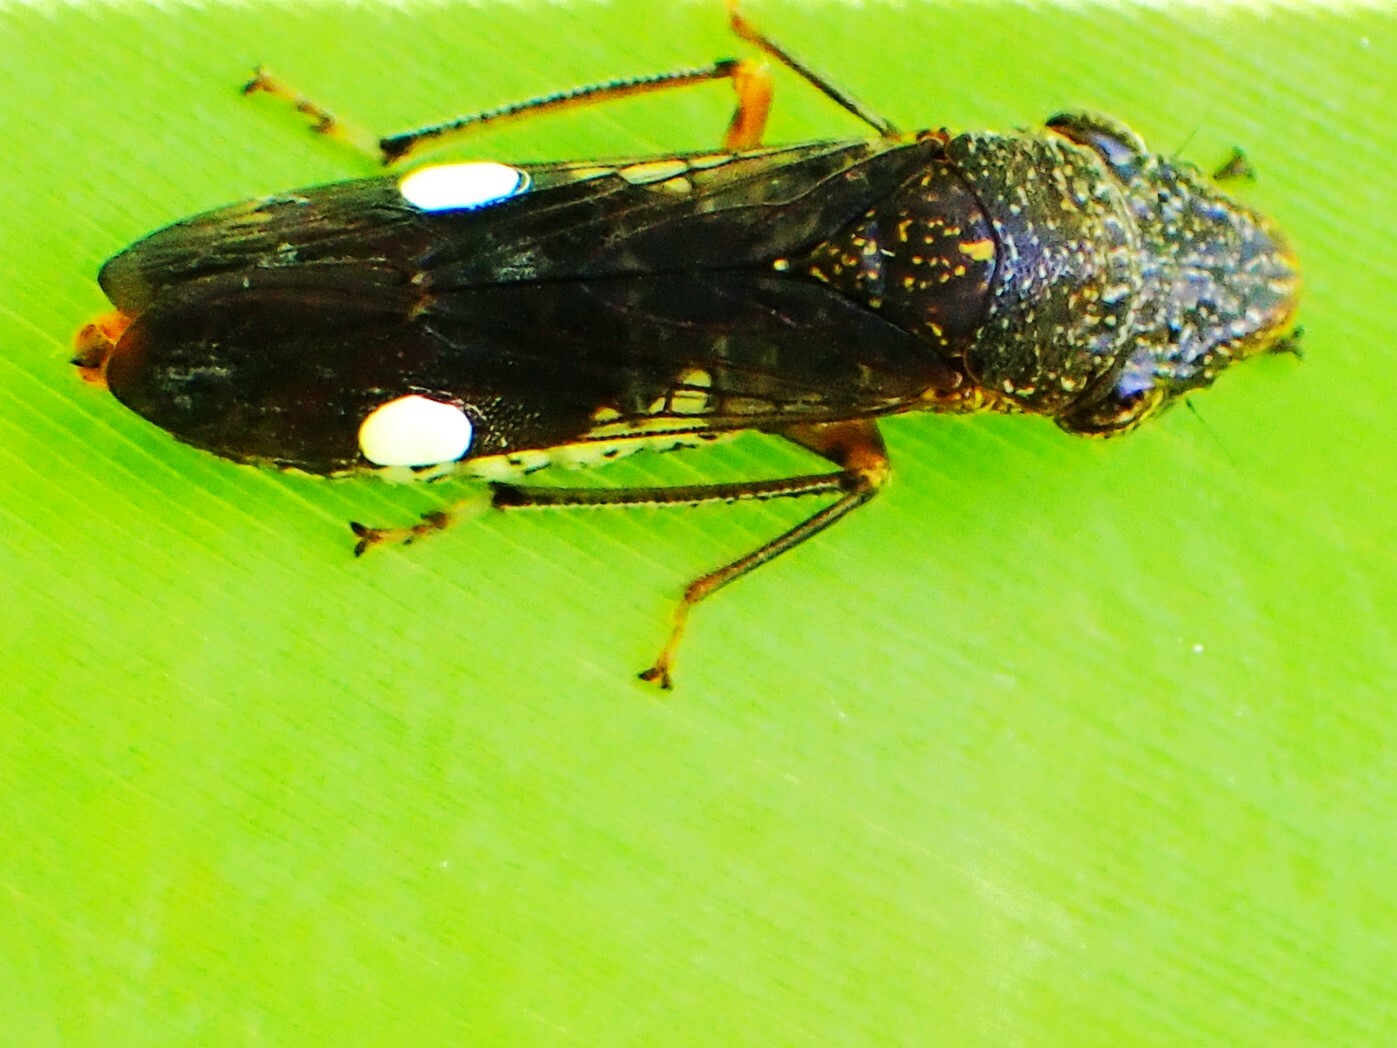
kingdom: Animalia
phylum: Arthropoda
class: Insecta
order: Hemiptera
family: Cicadellidae
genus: Homalodisca
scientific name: Homalodisca vitripennis
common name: Glassy-winged sharpshooter
